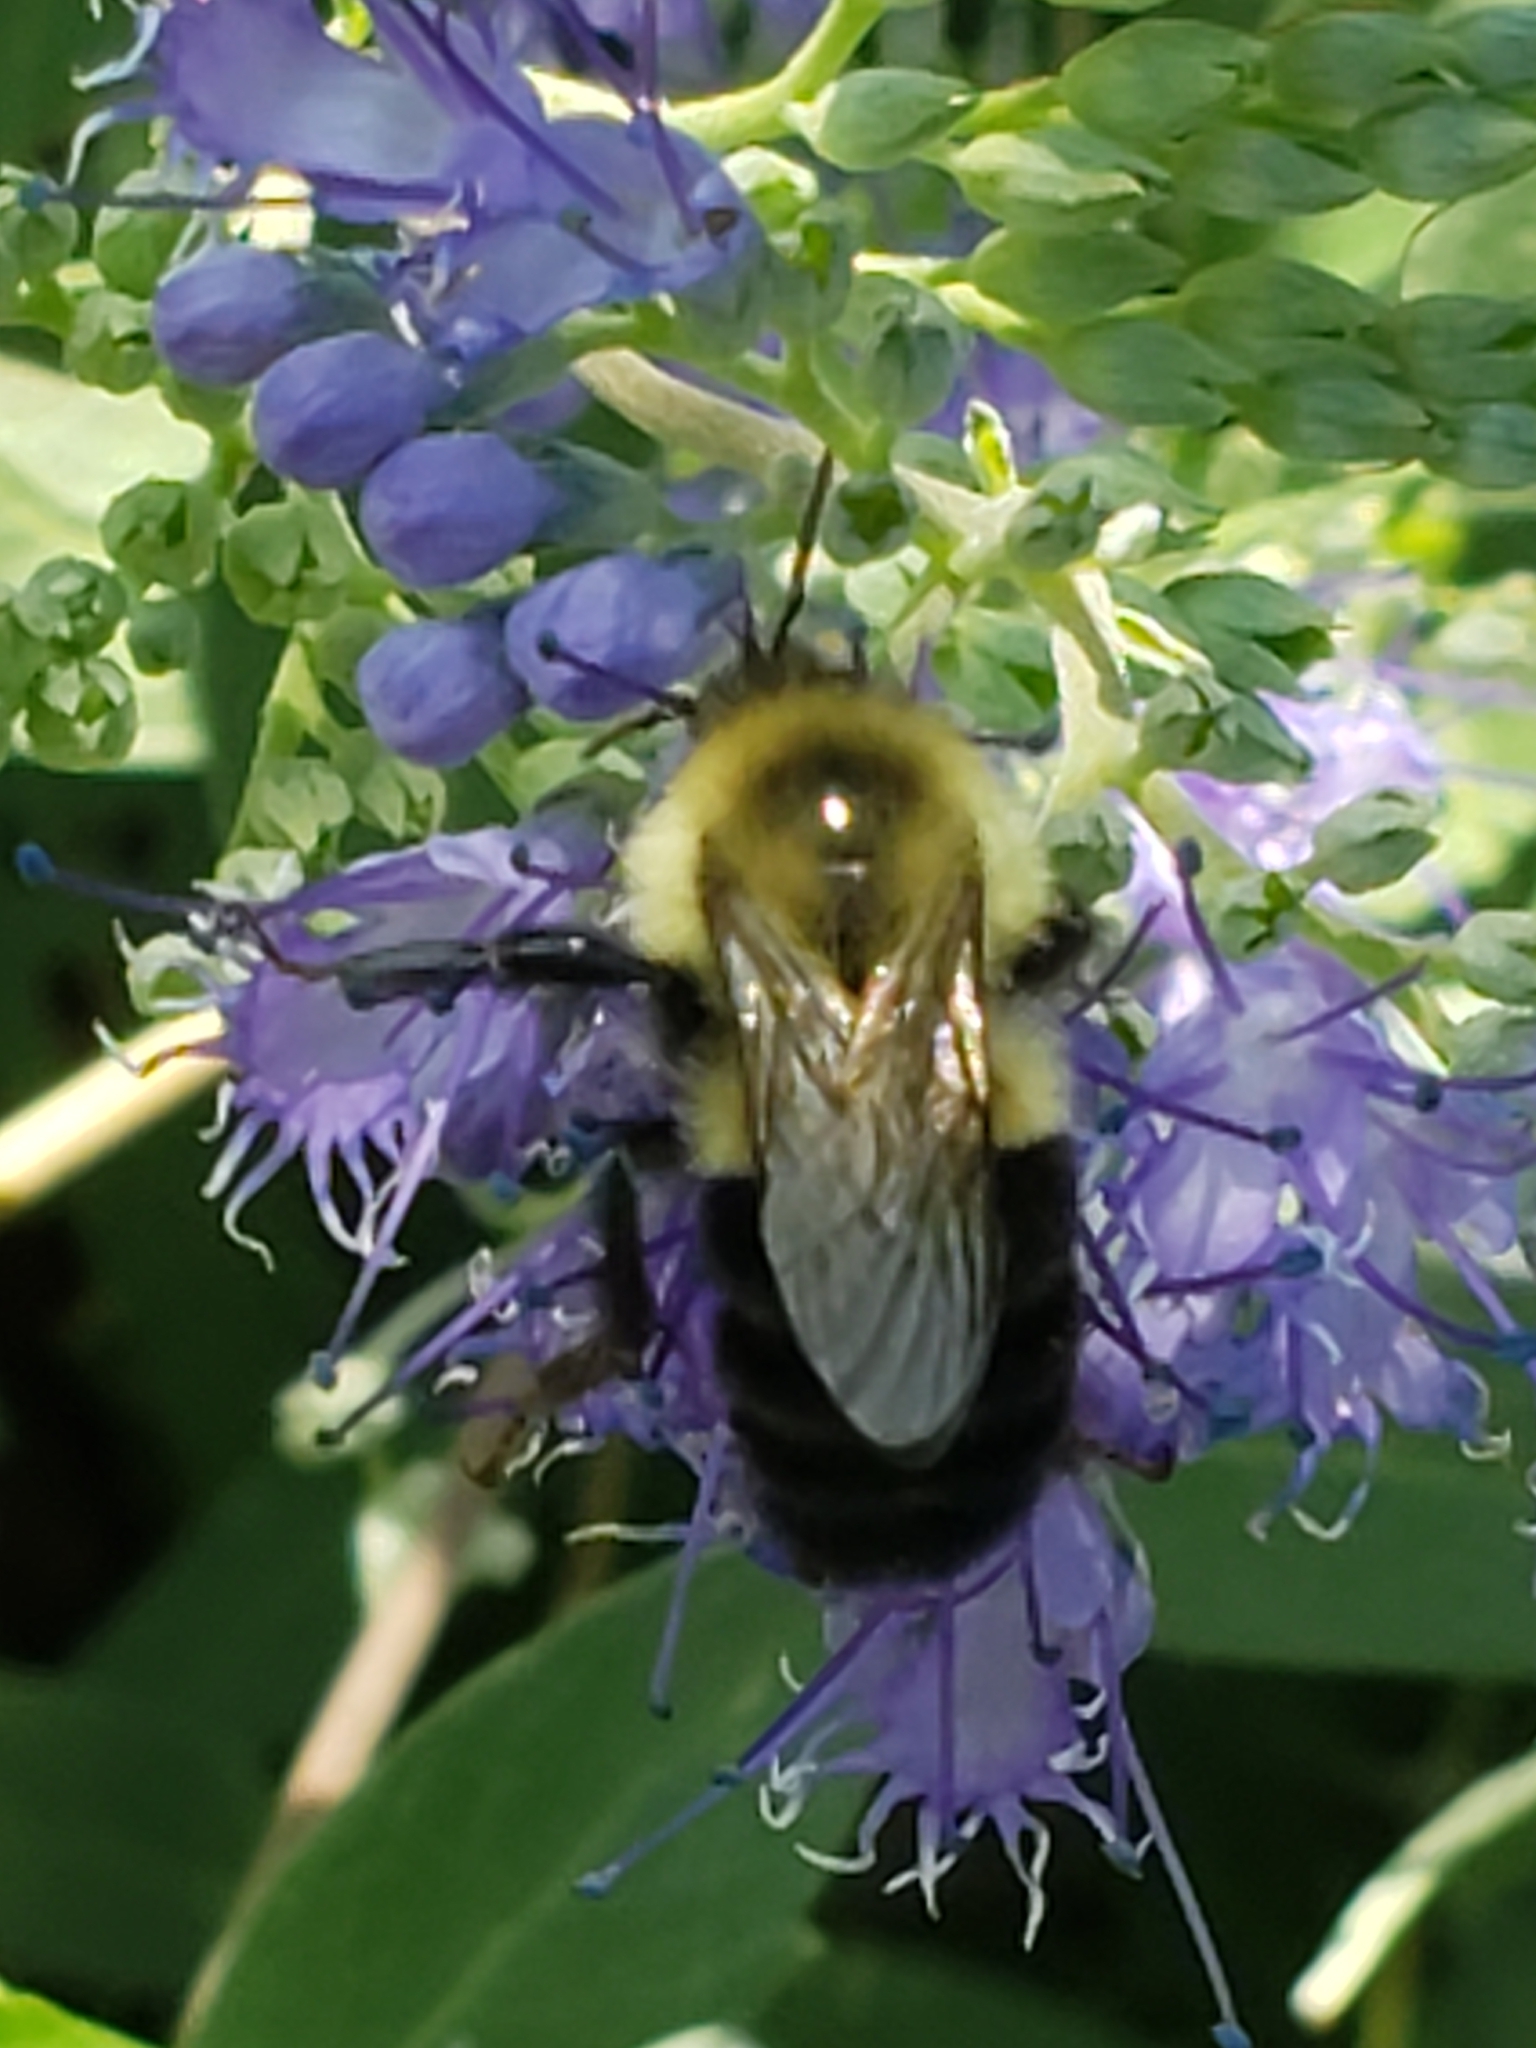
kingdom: Animalia
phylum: Arthropoda
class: Insecta
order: Hymenoptera
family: Apidae
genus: Bombus
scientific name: Bombus impatiens
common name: Common eastern bumble bee
